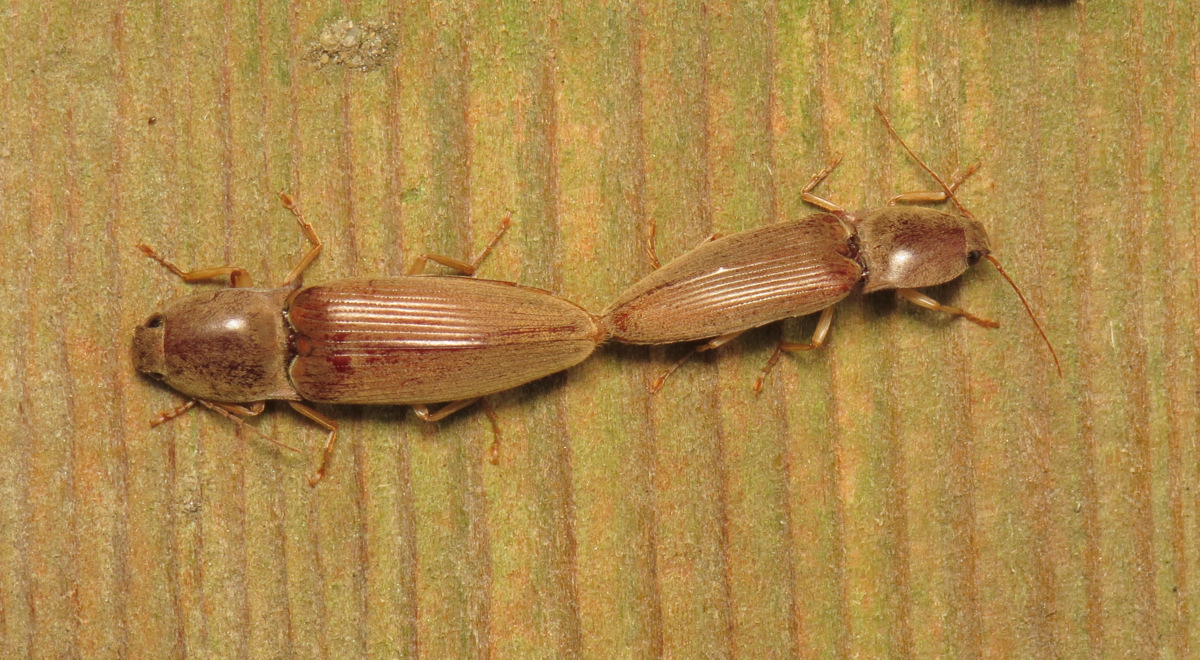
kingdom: Animalia
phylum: Arthropoda
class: Insecta
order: Coleoptera
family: Elateridae
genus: Monocrepidius
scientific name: Monocrepidius lividus
